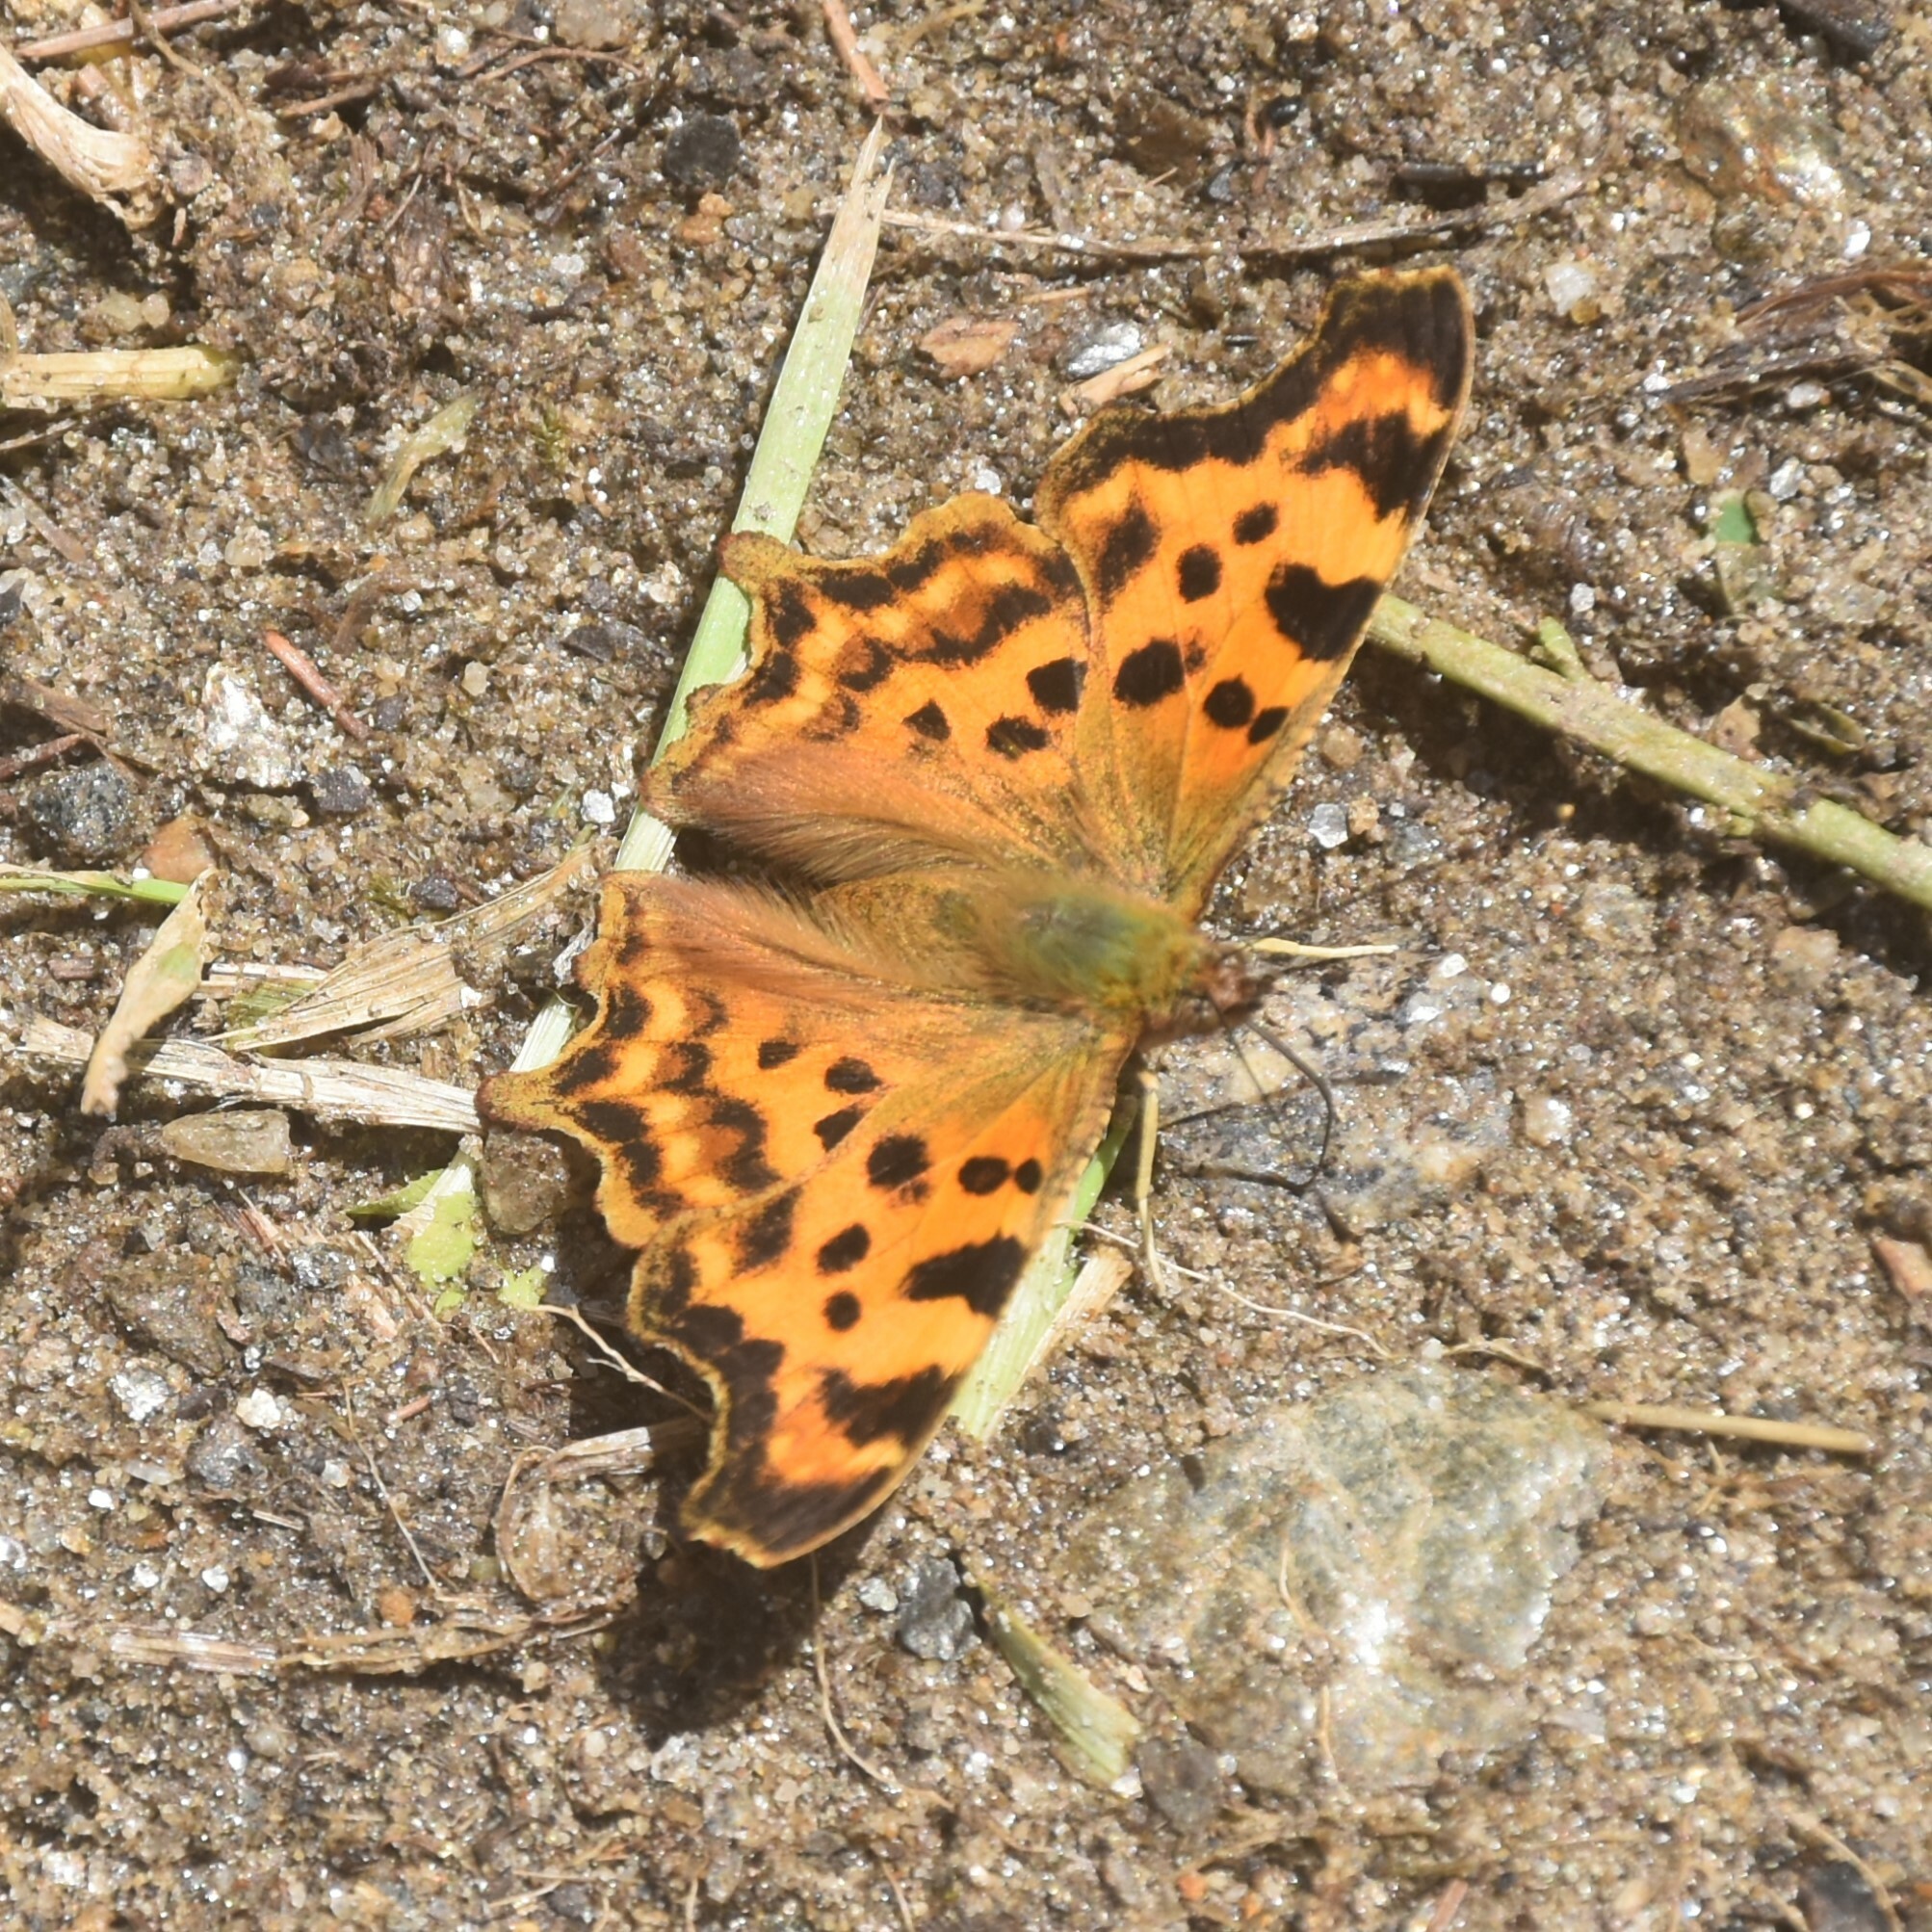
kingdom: Animalia
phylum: Arthropoda
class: Insecta
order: Lepidoptera
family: Nymphalidae
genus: Polygonia
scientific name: Polygonia c-album
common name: Comma
